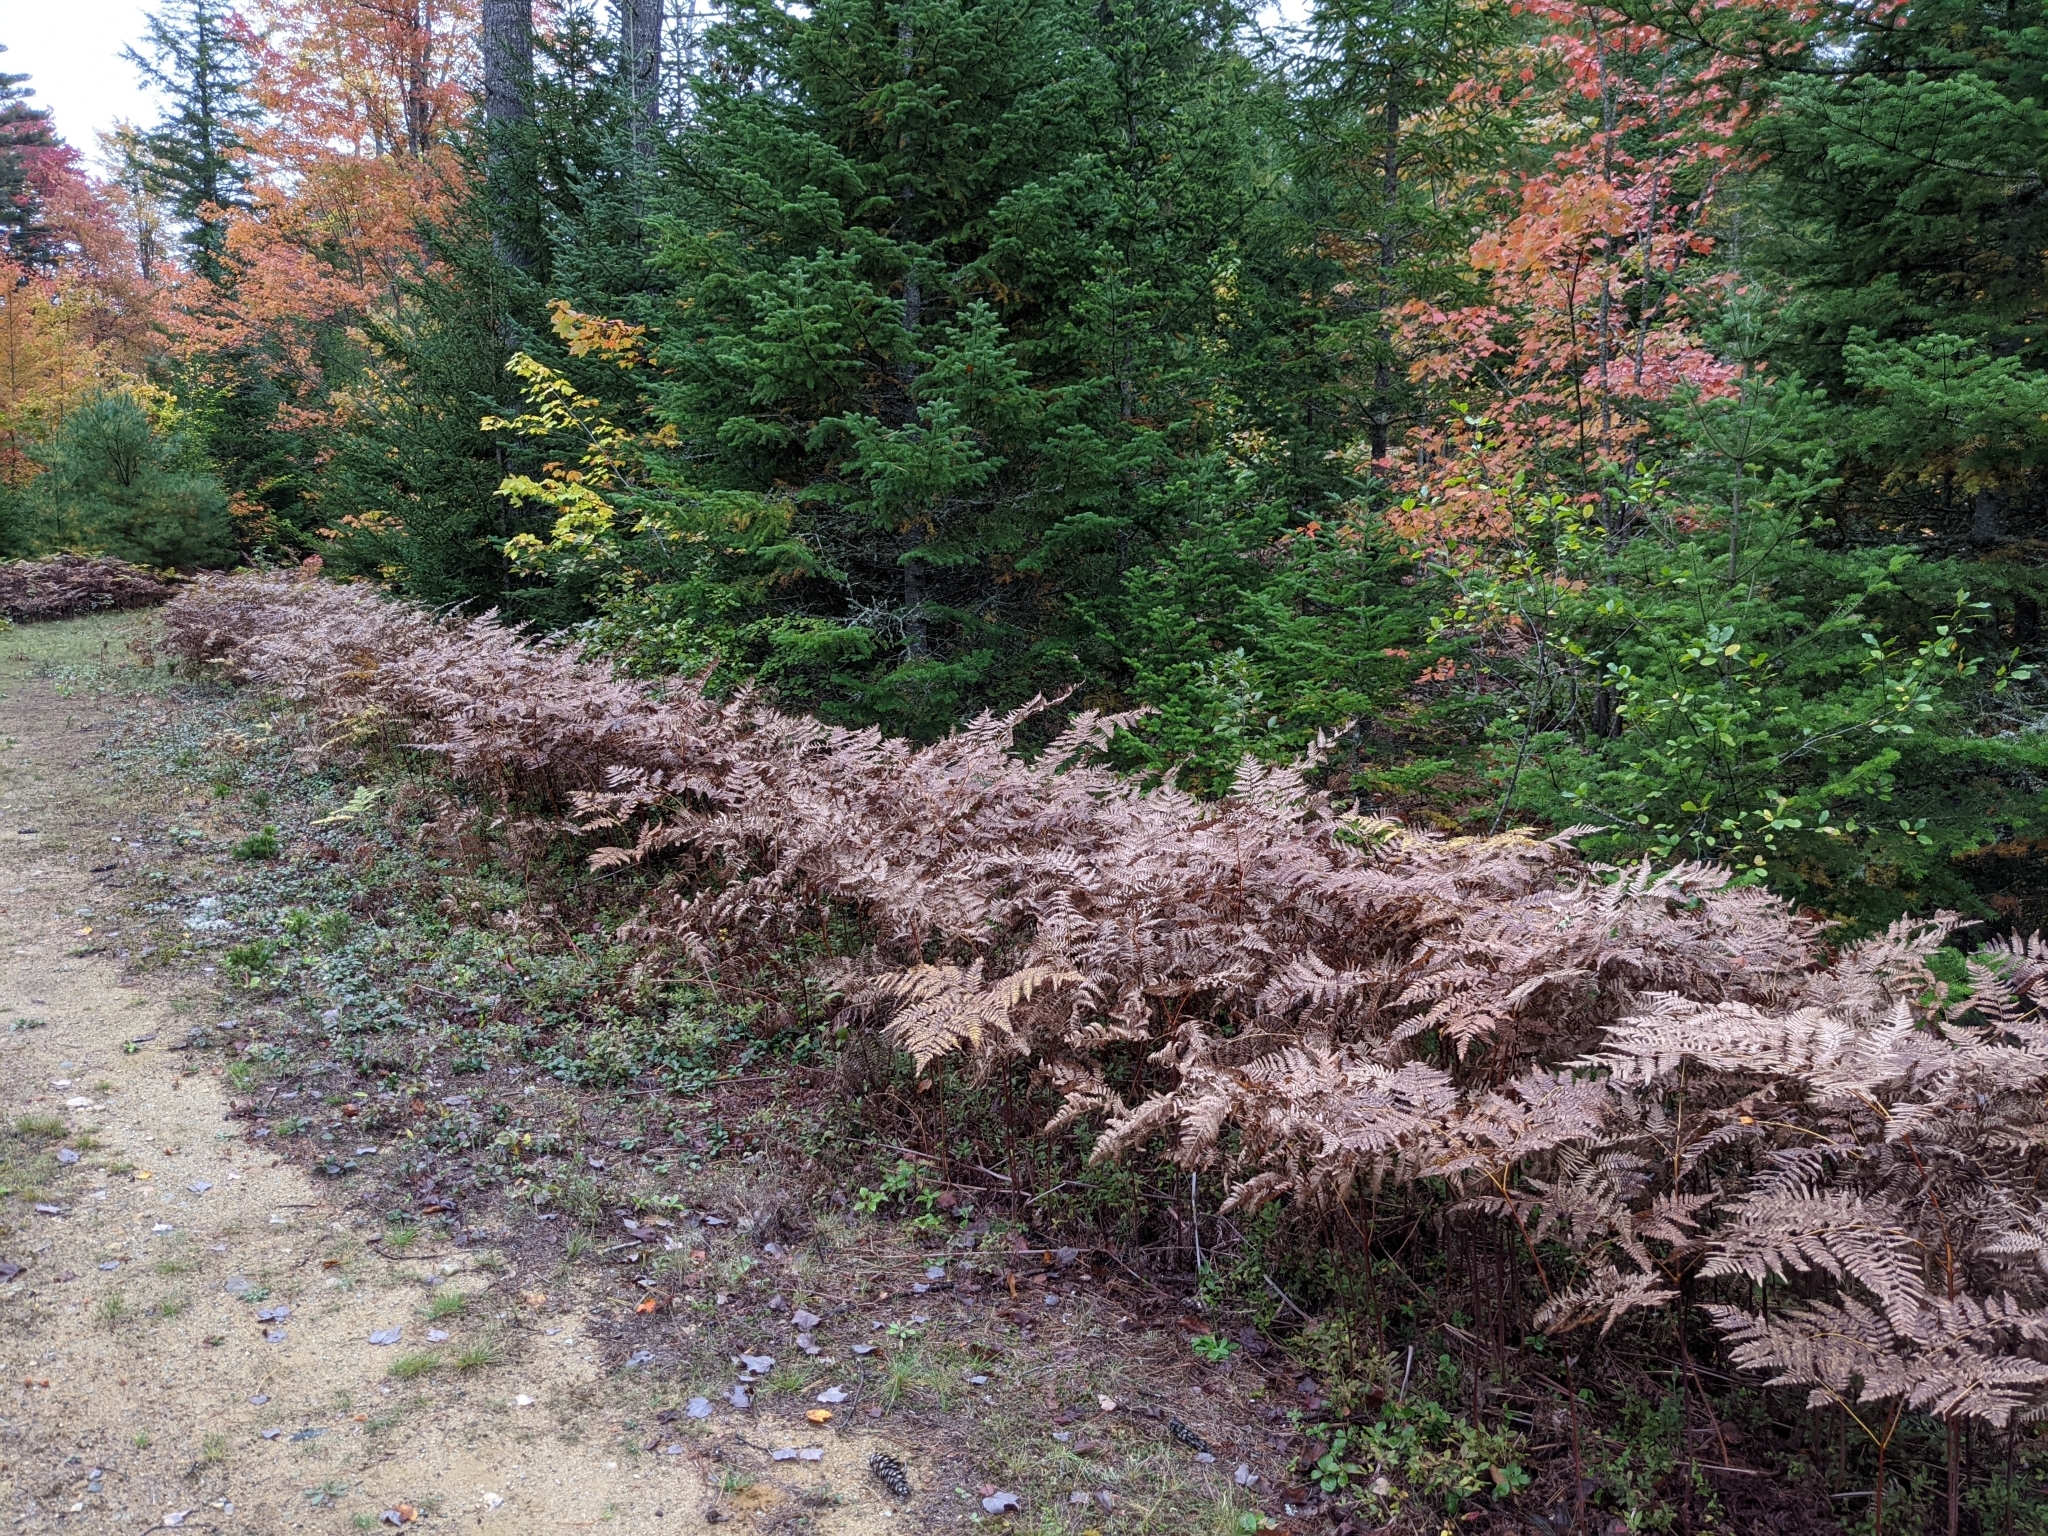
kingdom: Plantae
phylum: Tracheophyta
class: Polypodiopsida
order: Polypodiales
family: Dennstaedtiaceae
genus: Pteridium
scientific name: Pteridium aquilinum
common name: Bracken
